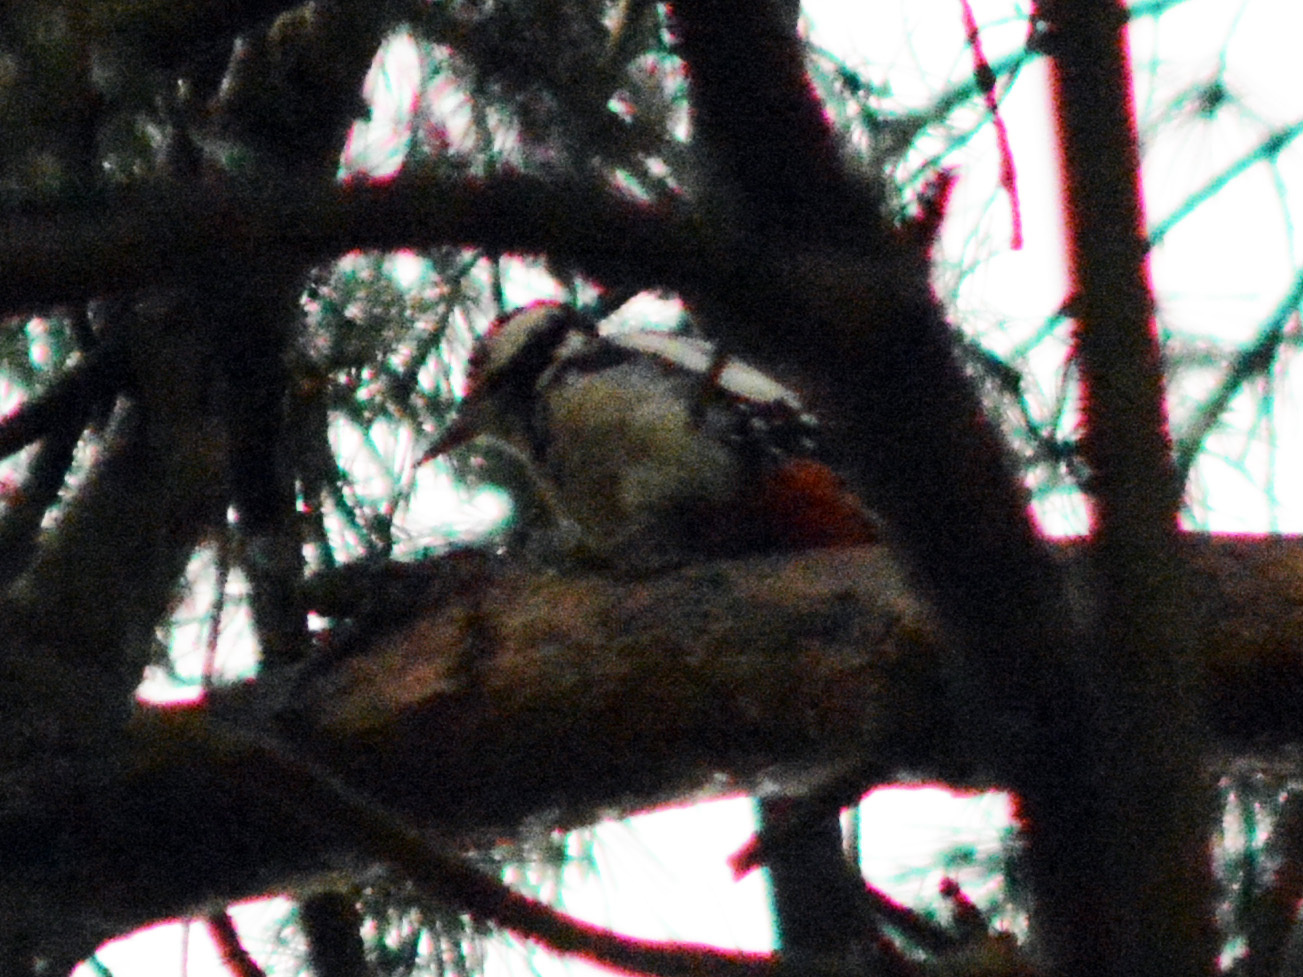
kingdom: Animalia
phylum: Chordata
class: Aves
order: Piciformes
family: Picidae
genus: Dendrocopos
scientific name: Dendrocopos major
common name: Great spotted woodpecker
